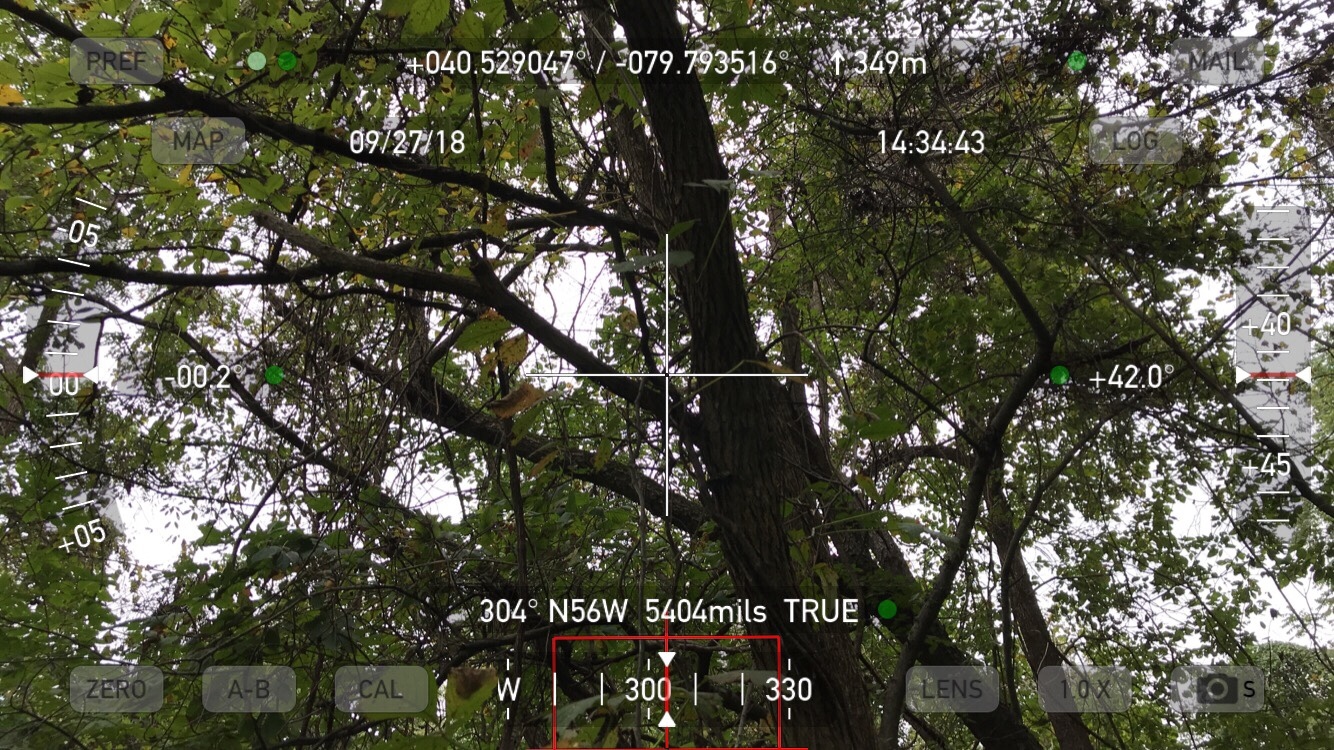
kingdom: Plantae
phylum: Tracheophyta
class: Magnoliopsida
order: Vitales
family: Vitaceae
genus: Parthenocissus
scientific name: Parthenocissus quinquefolia
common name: Virginia-creeper
